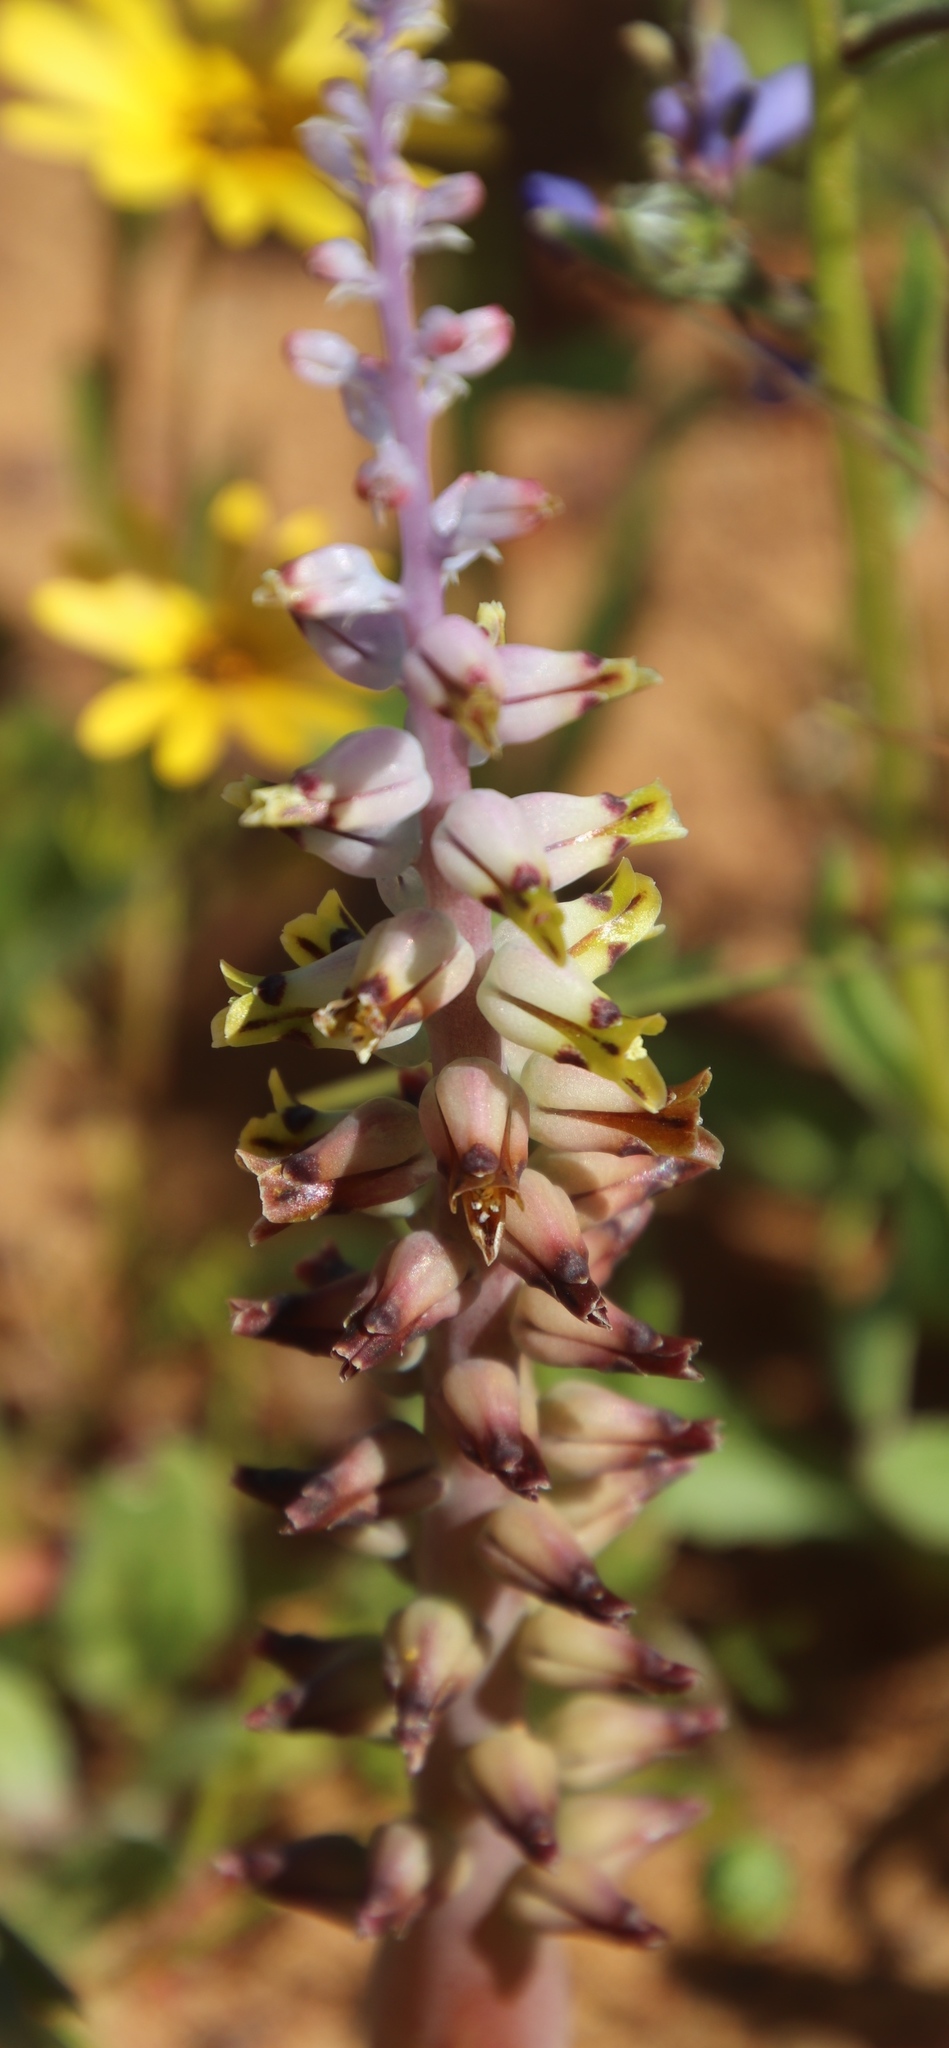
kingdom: Plantae
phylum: Tracheophyta
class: Liliopsida
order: Asparagales
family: Asparagaceae
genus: Lachenalia
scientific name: Lachenalia mutabilis
